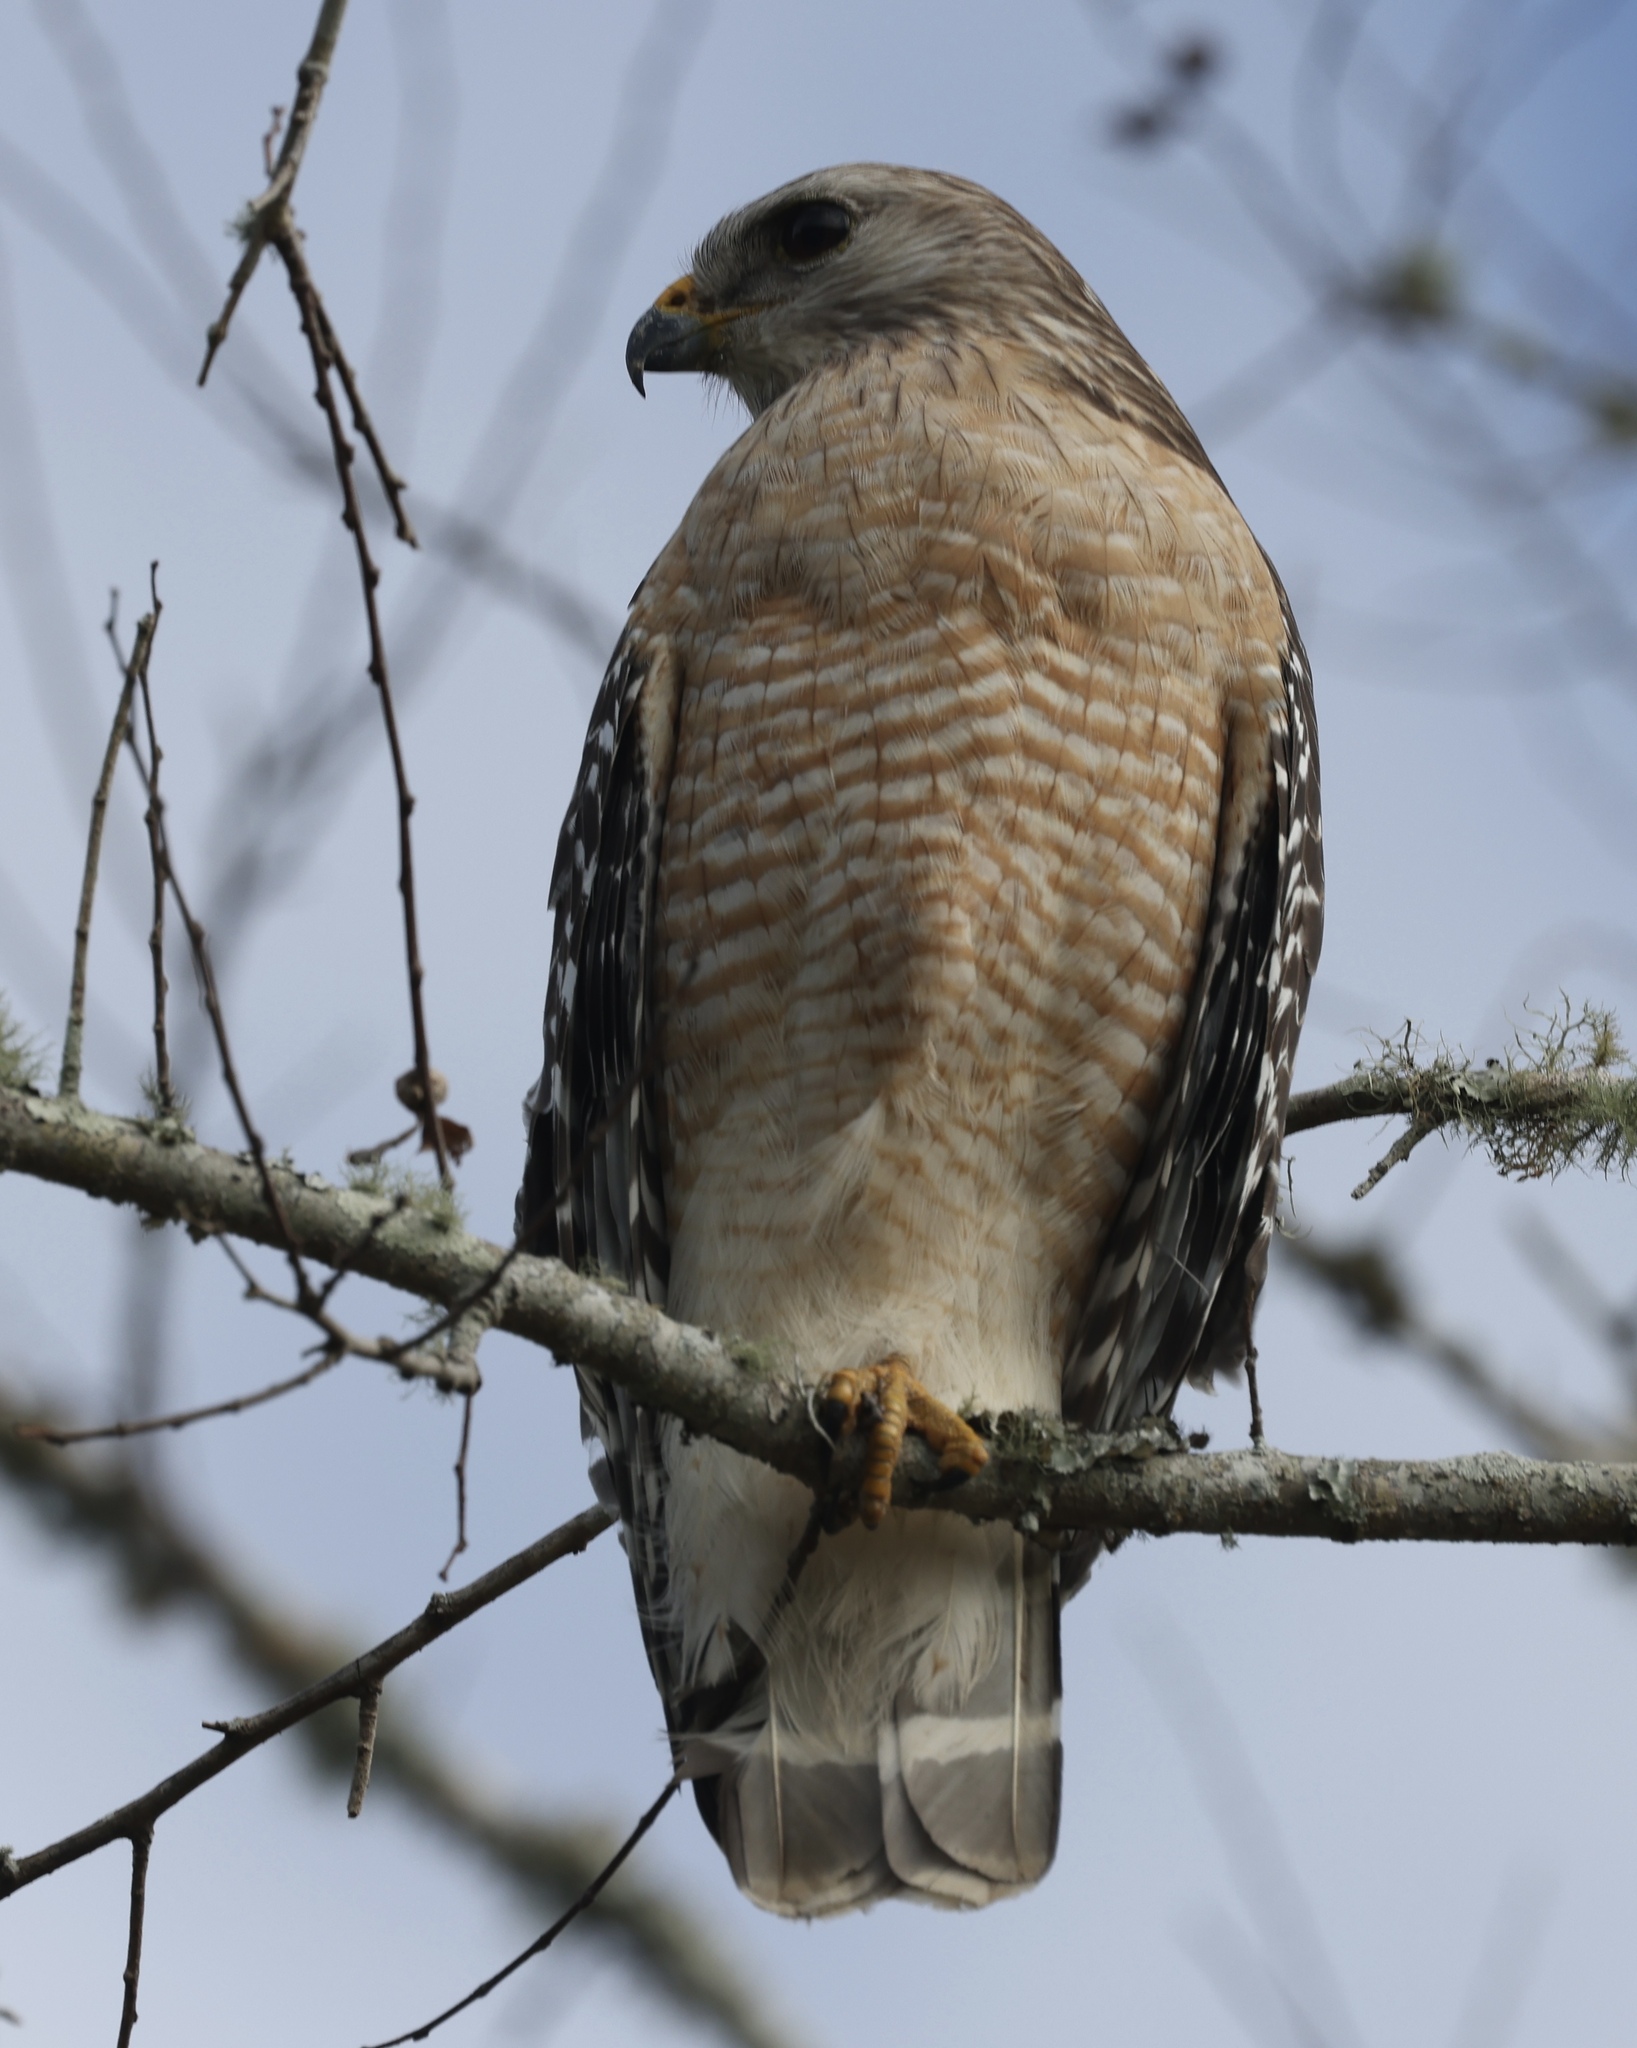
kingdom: Animalia
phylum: Chordata
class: Aves
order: Accipitriformes
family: Accipitridae
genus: Buteo
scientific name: Buteo lineatus
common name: Red-shouldered hawk
